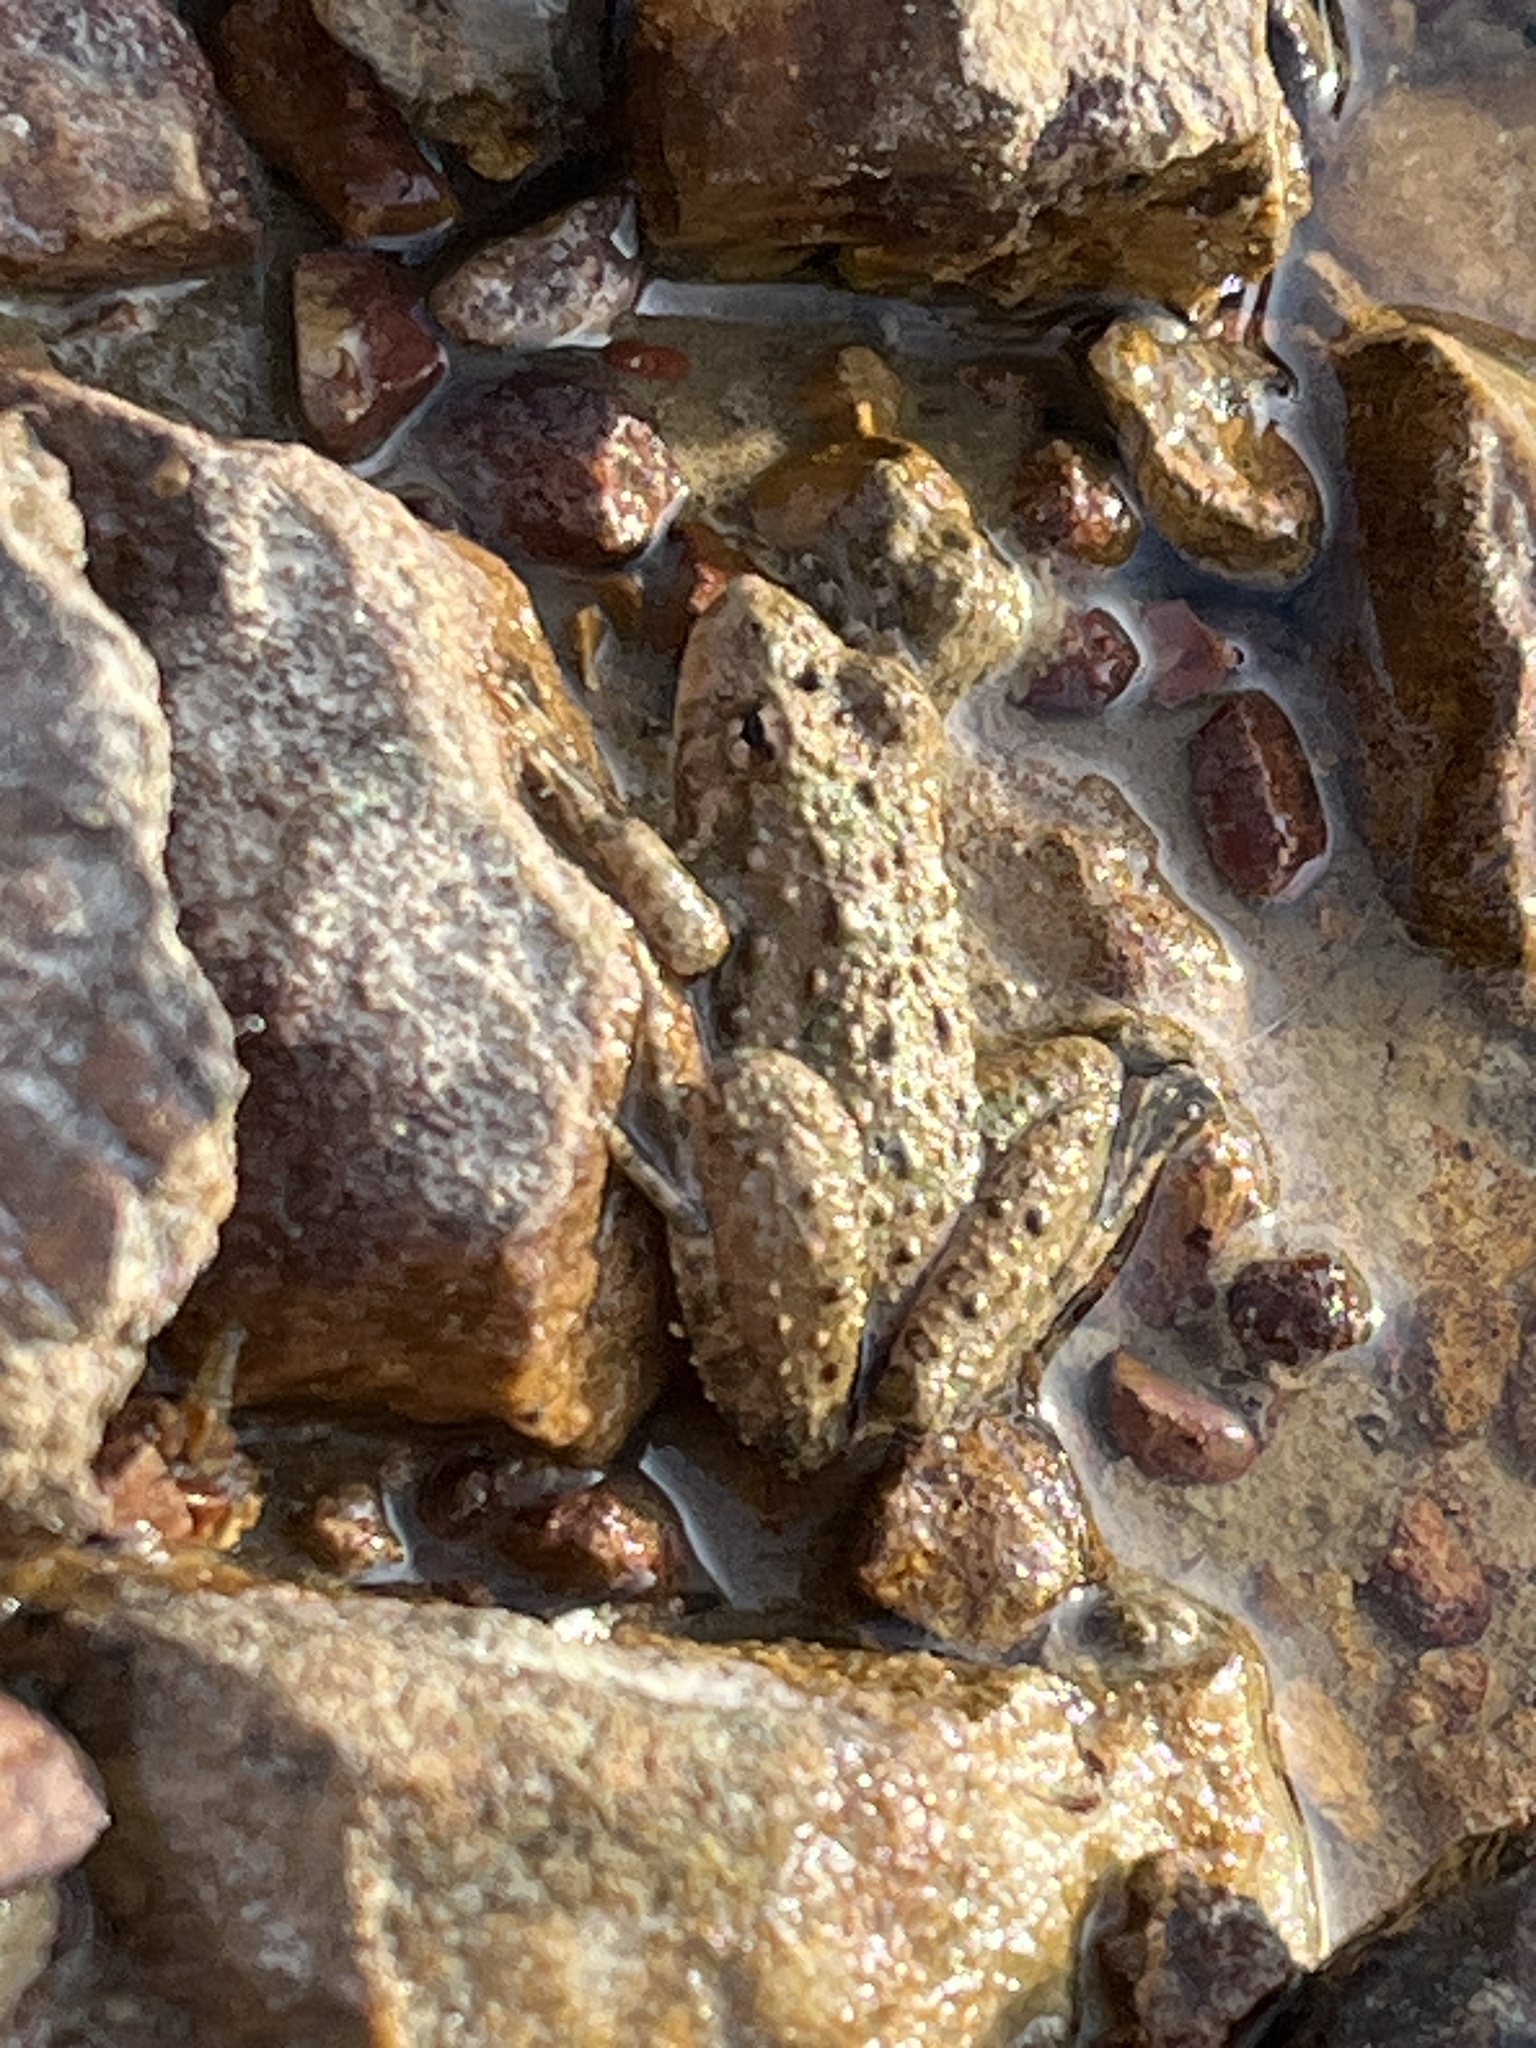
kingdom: Animalia
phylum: Chordata
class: Amphibia
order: Anura
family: Hylidae
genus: Acris
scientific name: Acris blanchardi
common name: Blanchard's cricket frog
